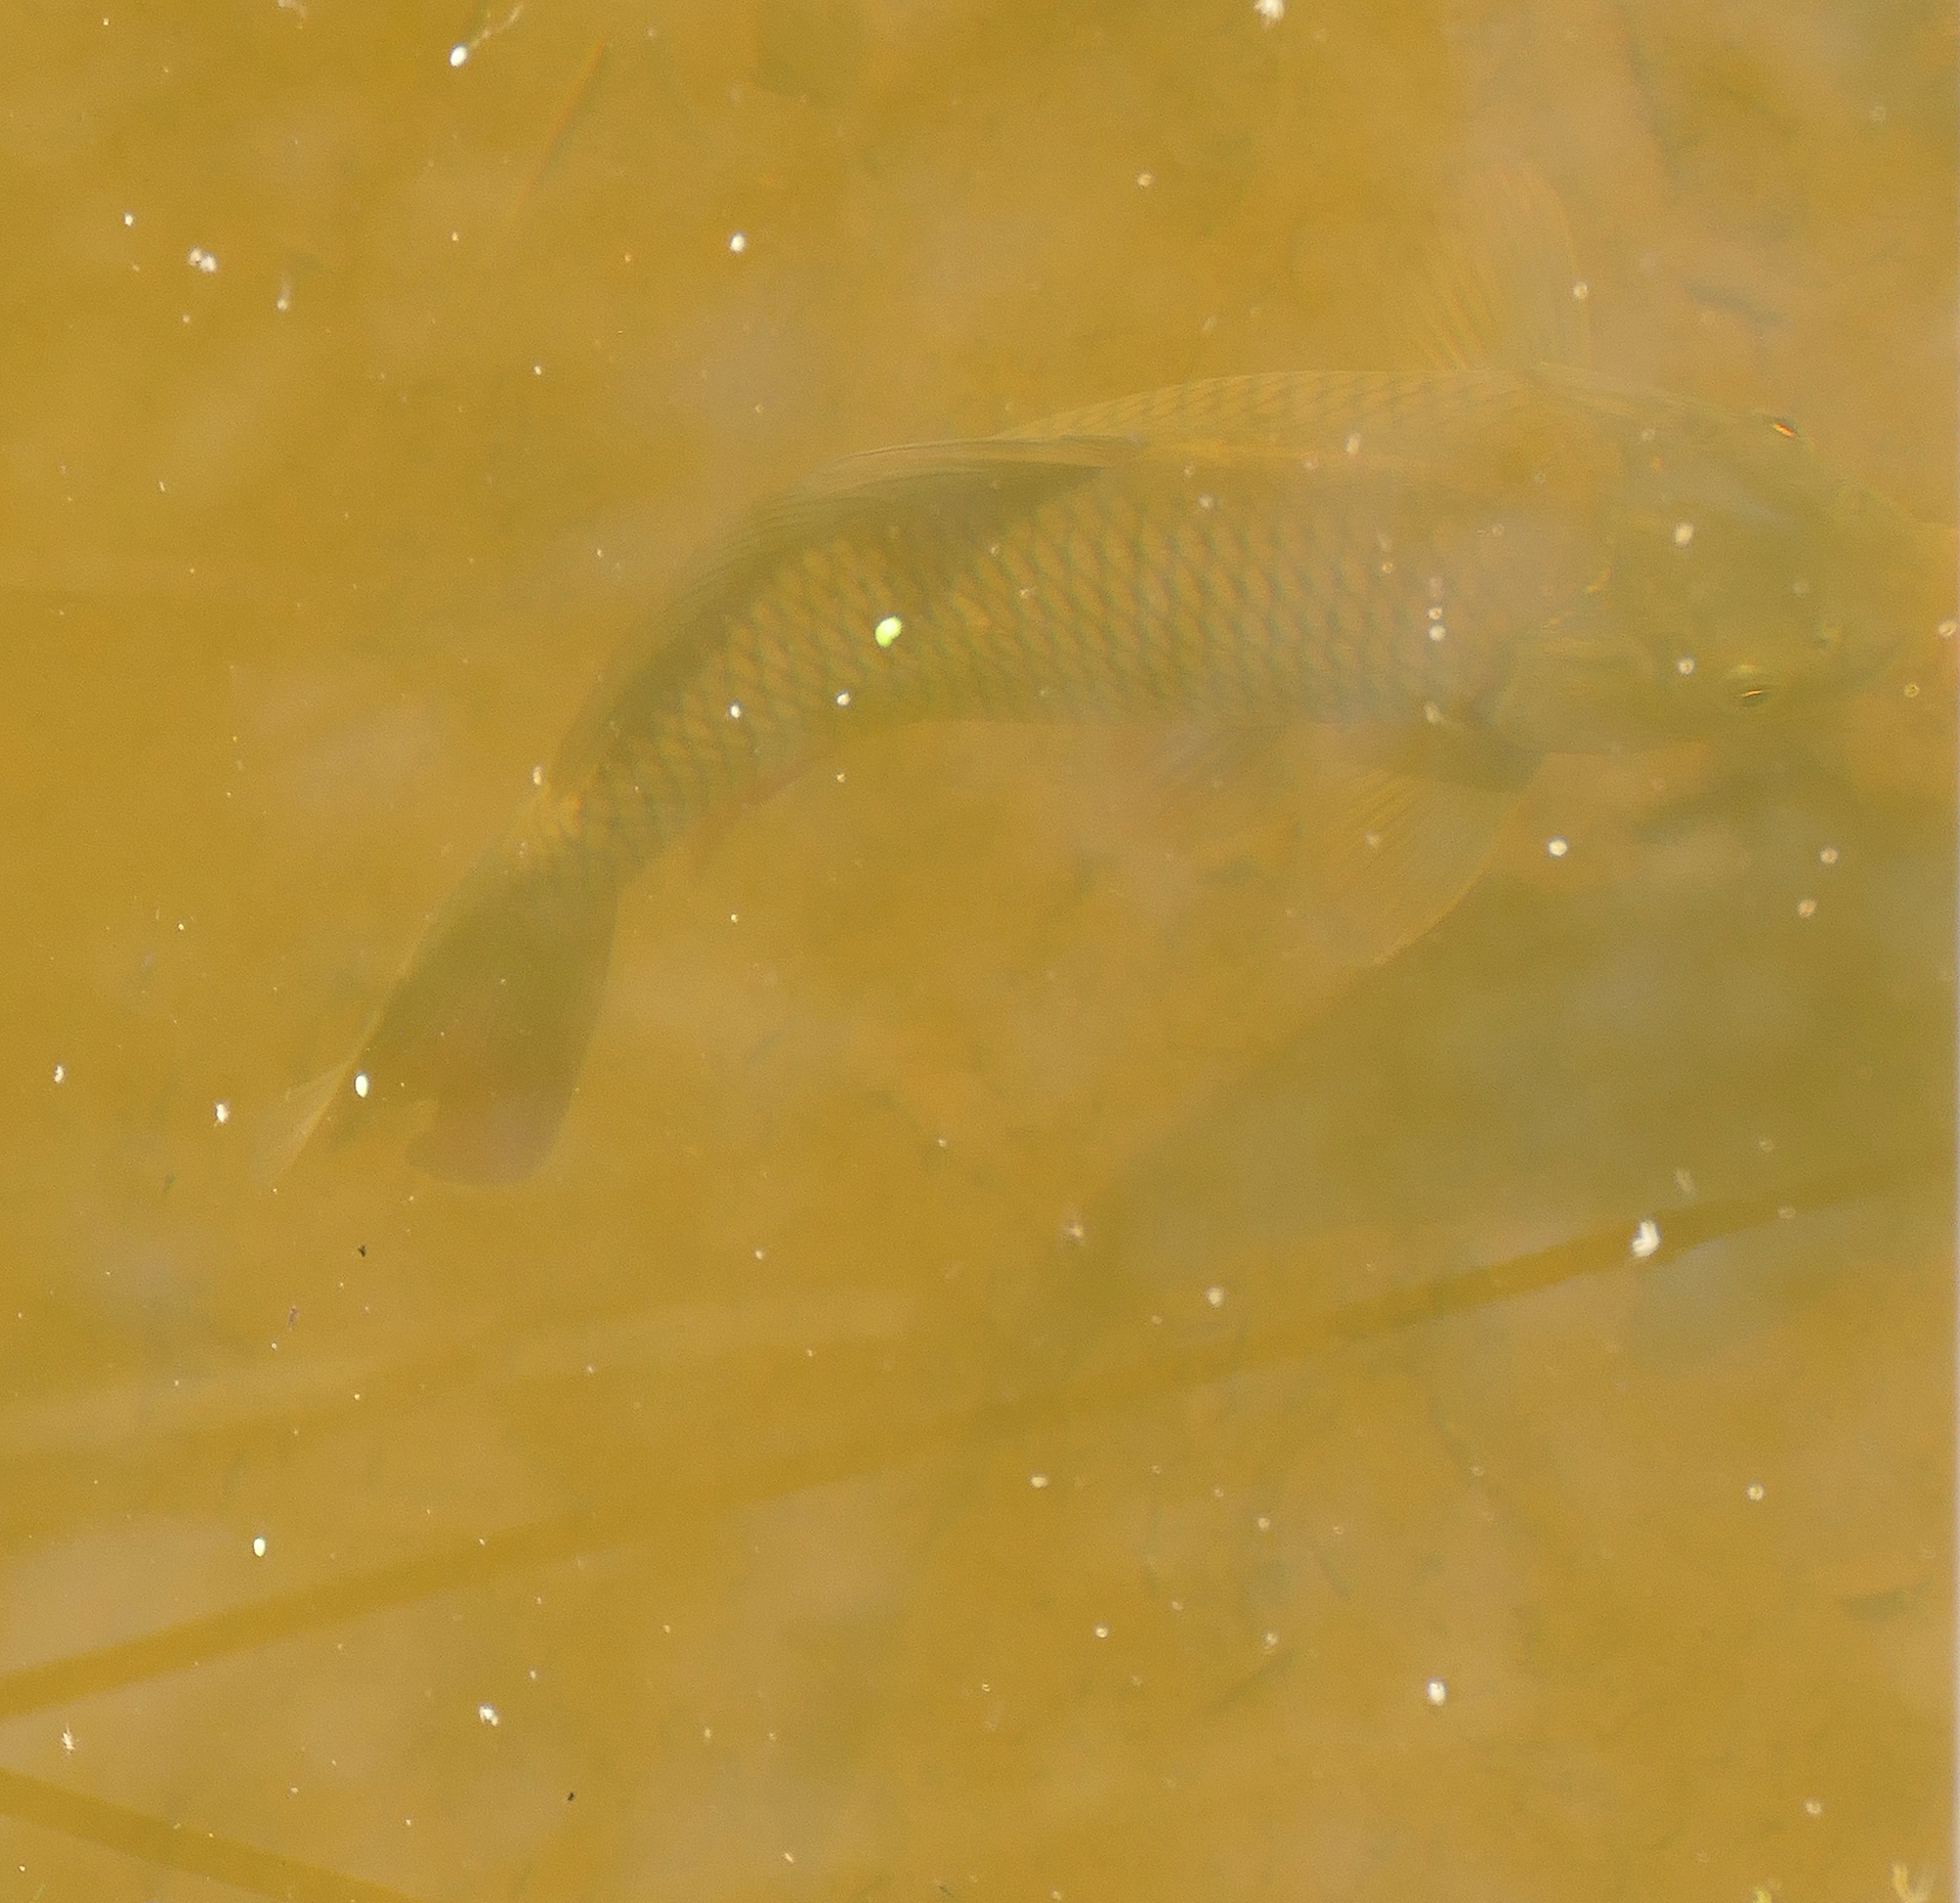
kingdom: Animalia
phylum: Chordata
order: Cypriniformes
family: Cyprinidae
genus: Cyprinus
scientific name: Cyprinus carpio
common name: Common carp
